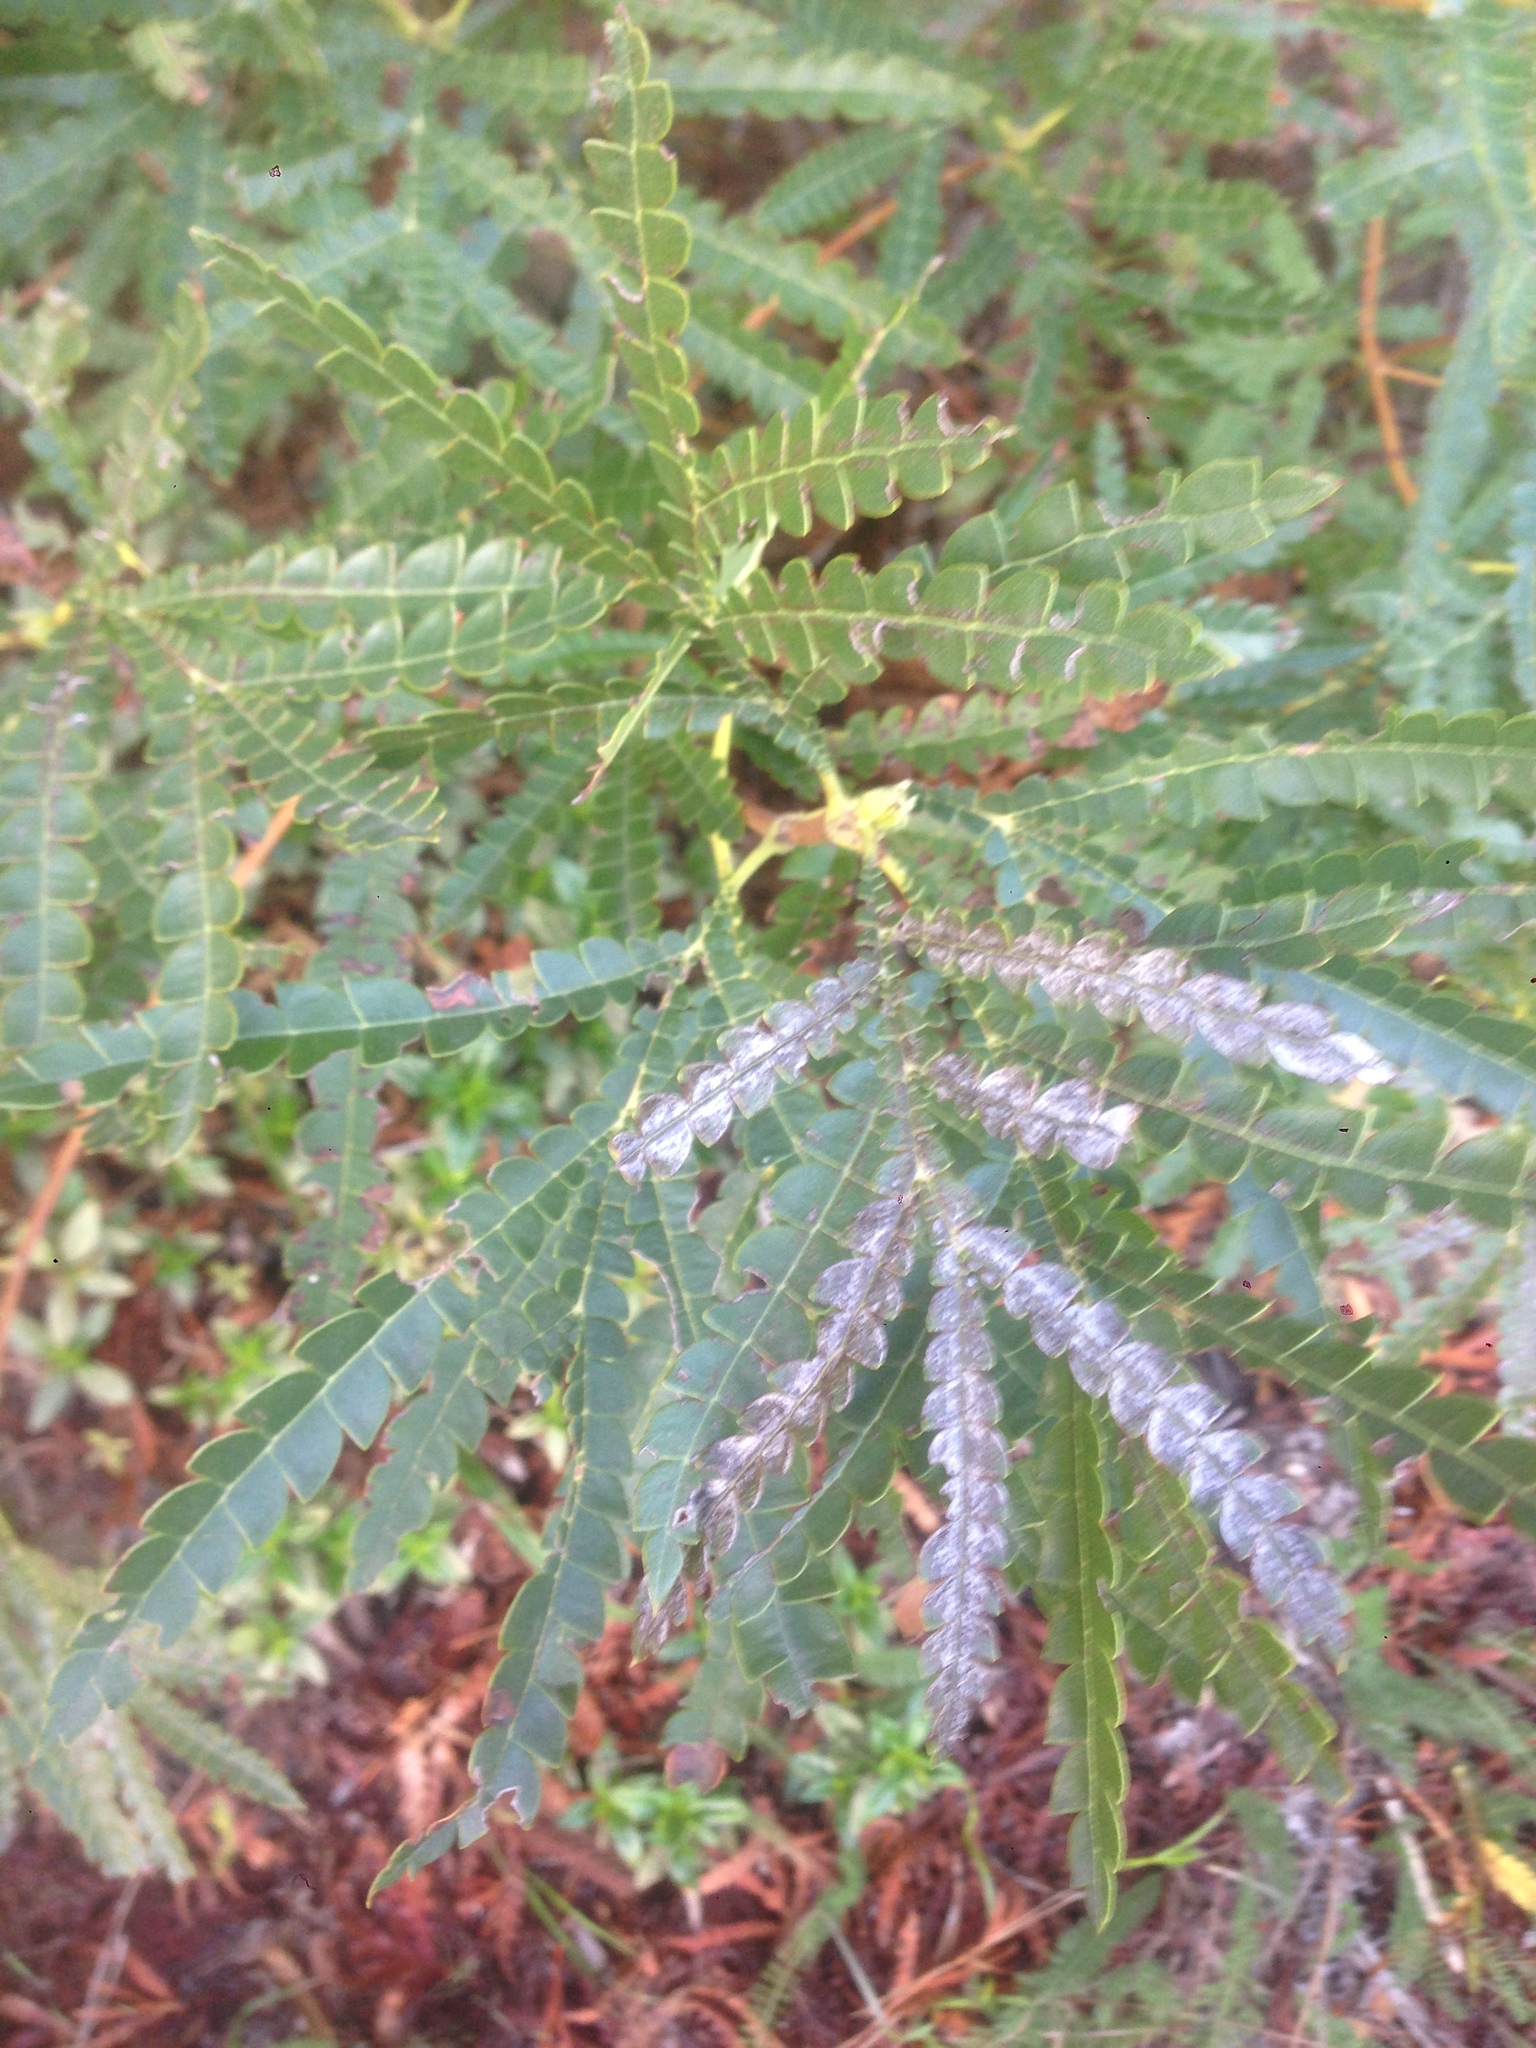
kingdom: Plantae
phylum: Tracheophyta
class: Magnoliopsida
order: Rosales
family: Rosaceae
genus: Lyonothamnus
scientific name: Lyonothamnus floribundus
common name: Catalina ironwood
